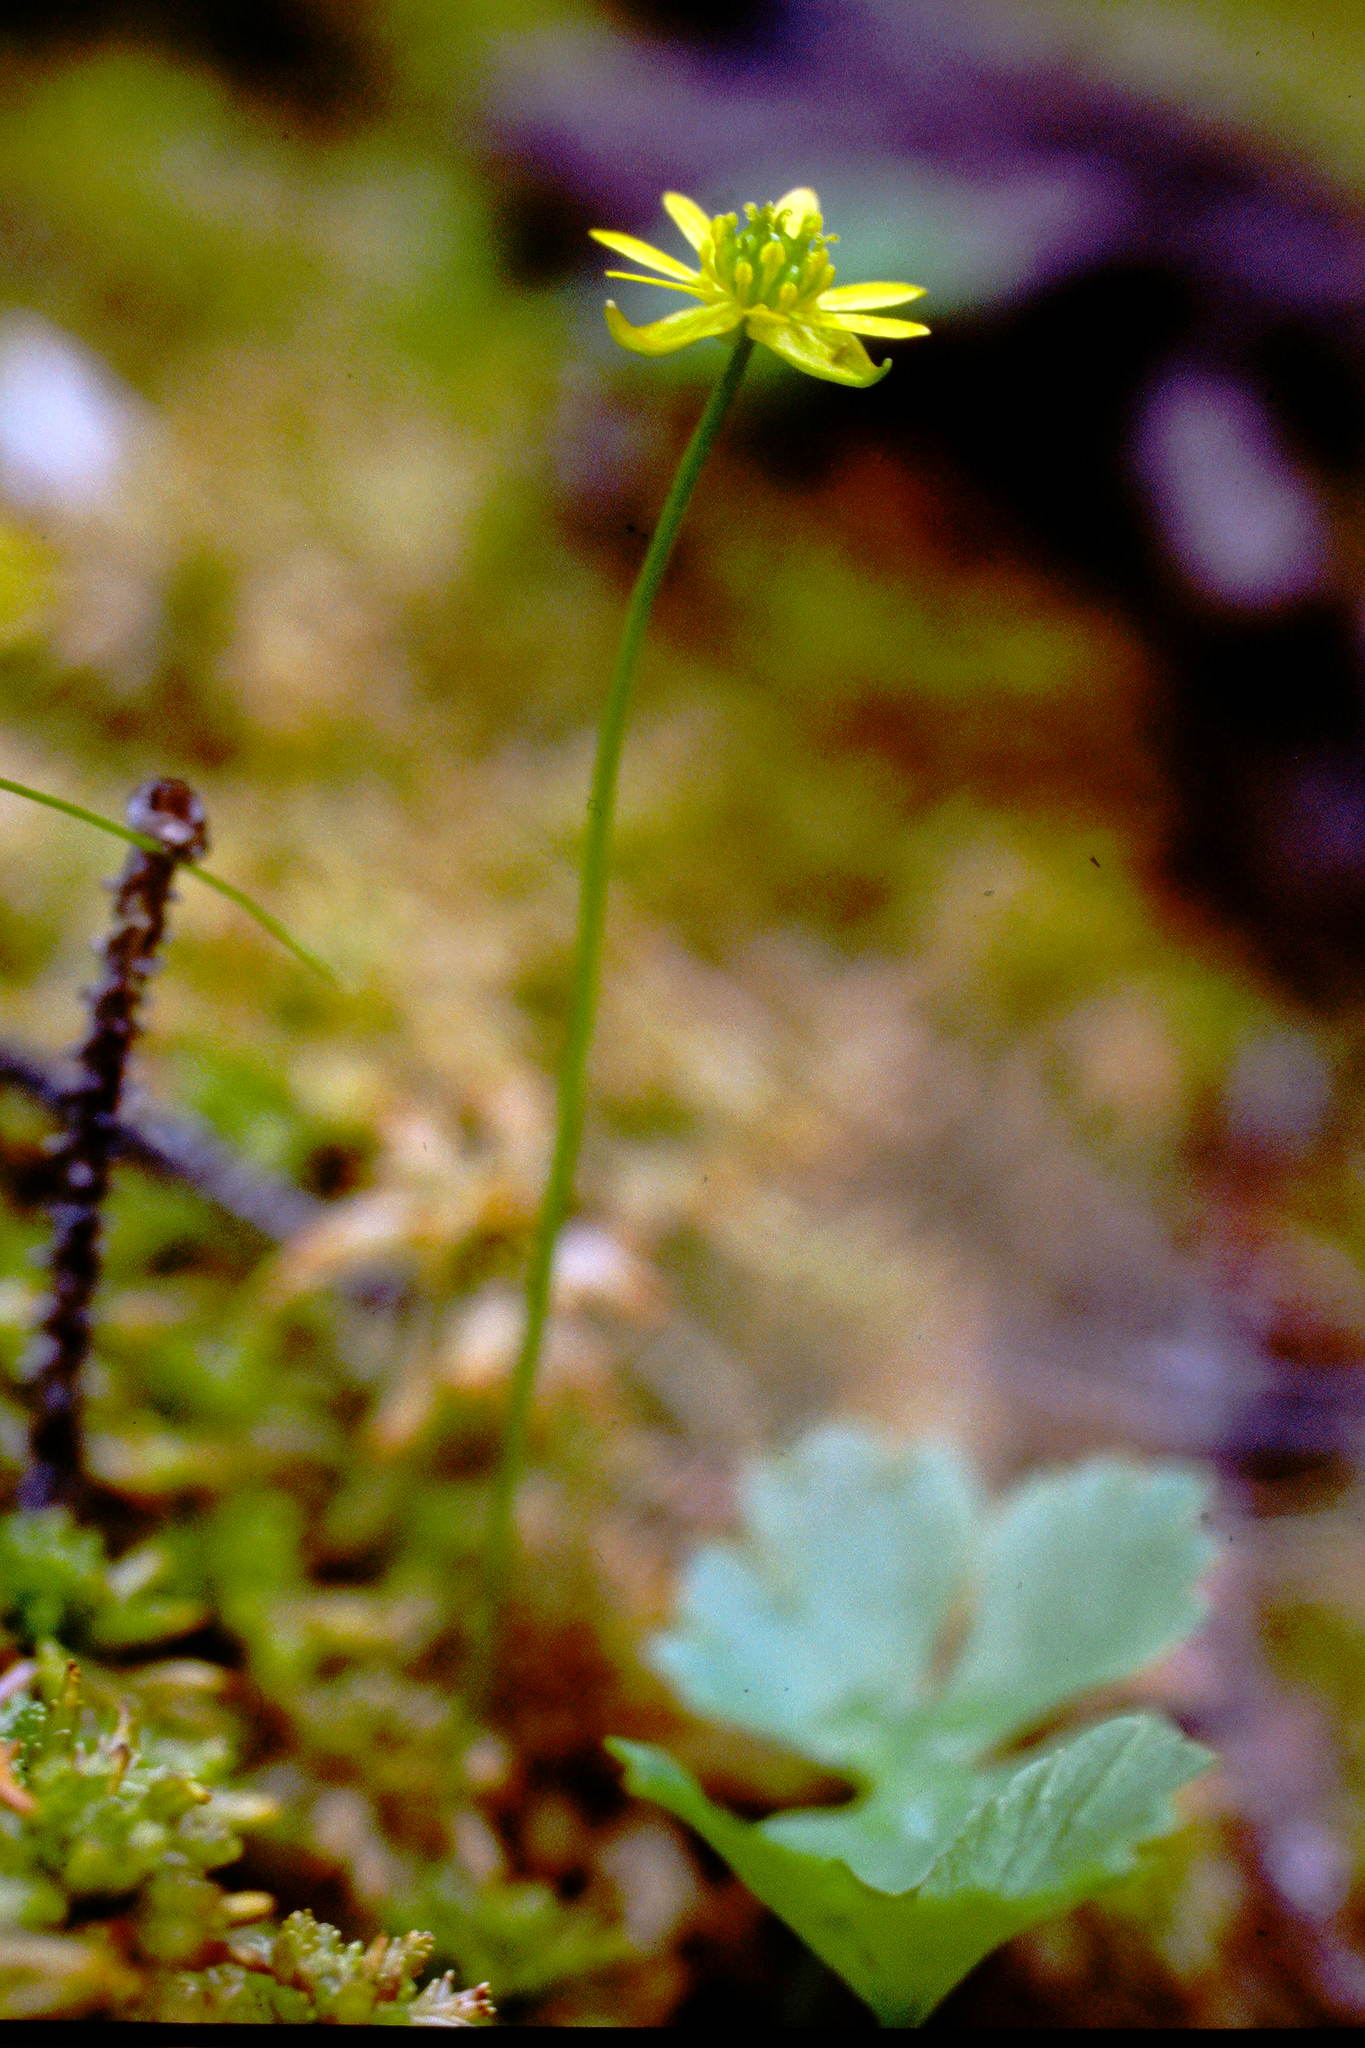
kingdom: Plantae
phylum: Tracheophyta
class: Magnoliopsida
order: Ranunculales
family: Ranunculaceae
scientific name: Ranunculaceae
